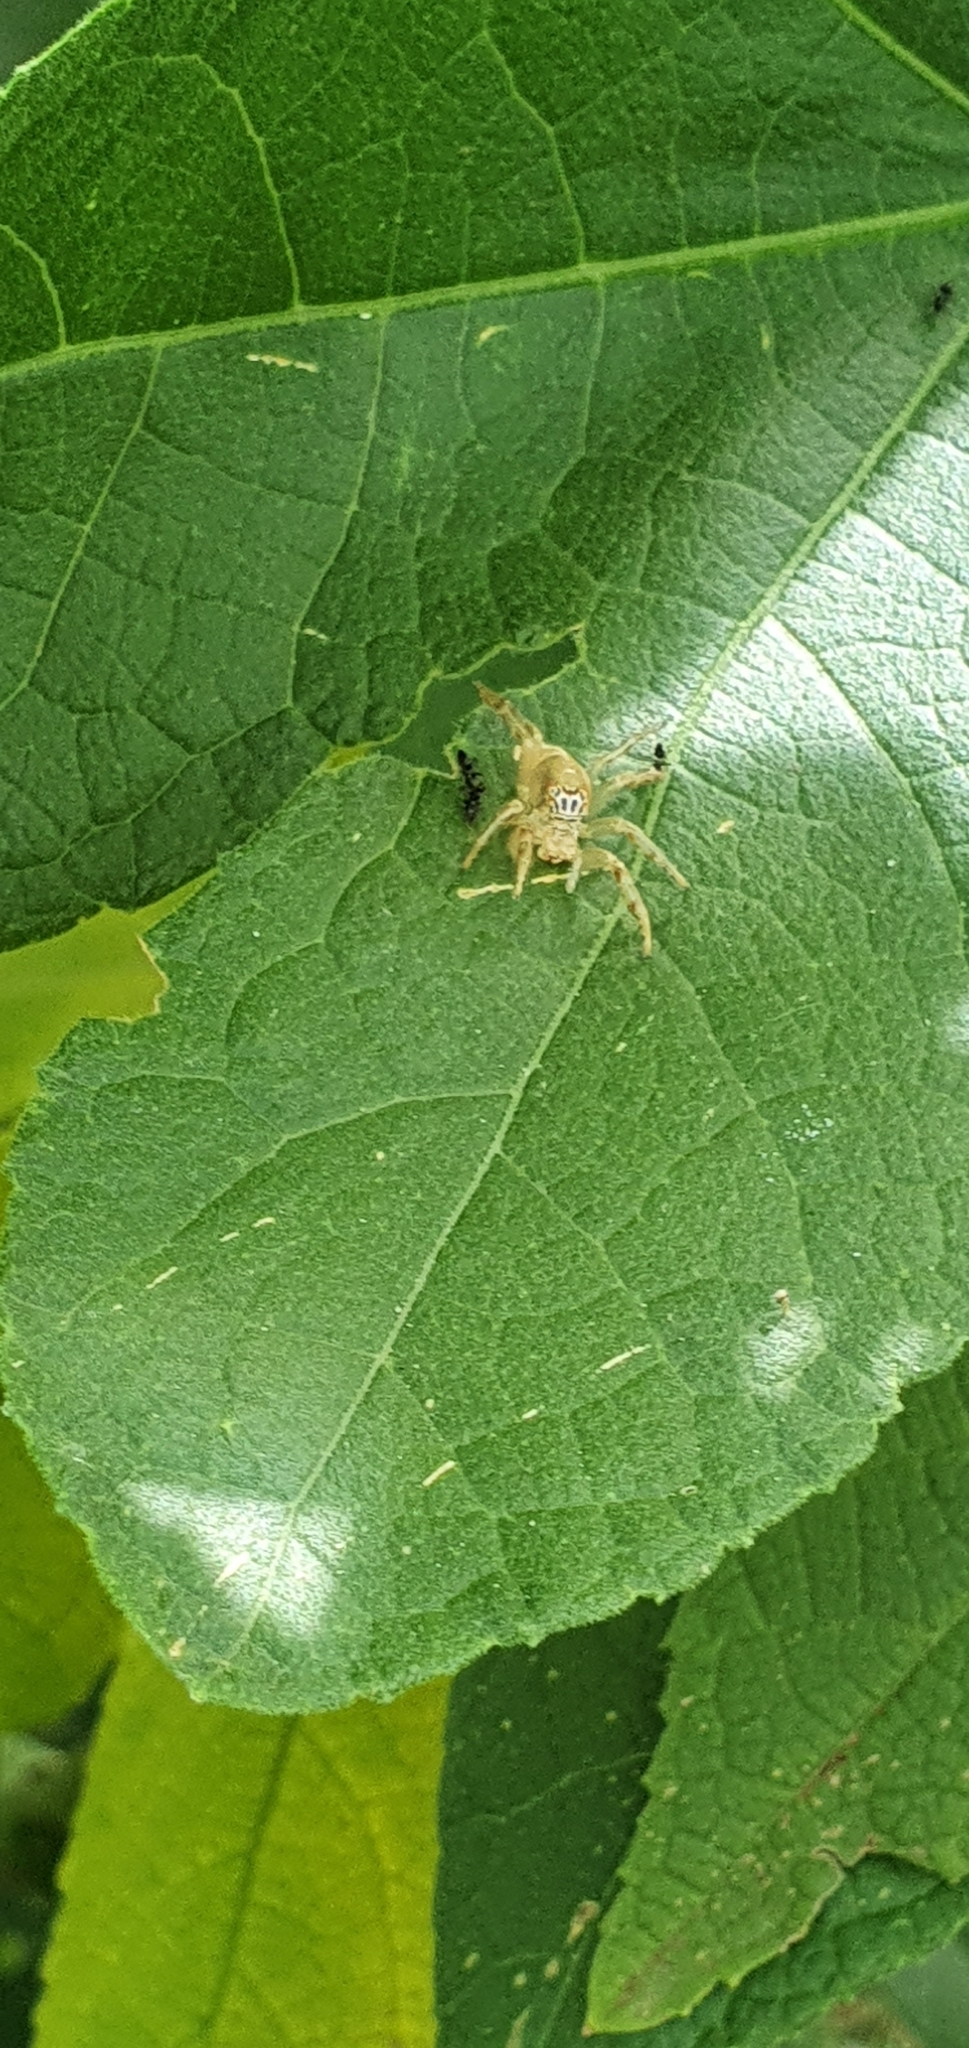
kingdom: Animalia
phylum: Arthropoda
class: Arachnida
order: Araneae
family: Salticidae
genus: Mopsus
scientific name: Mopsus mormon
